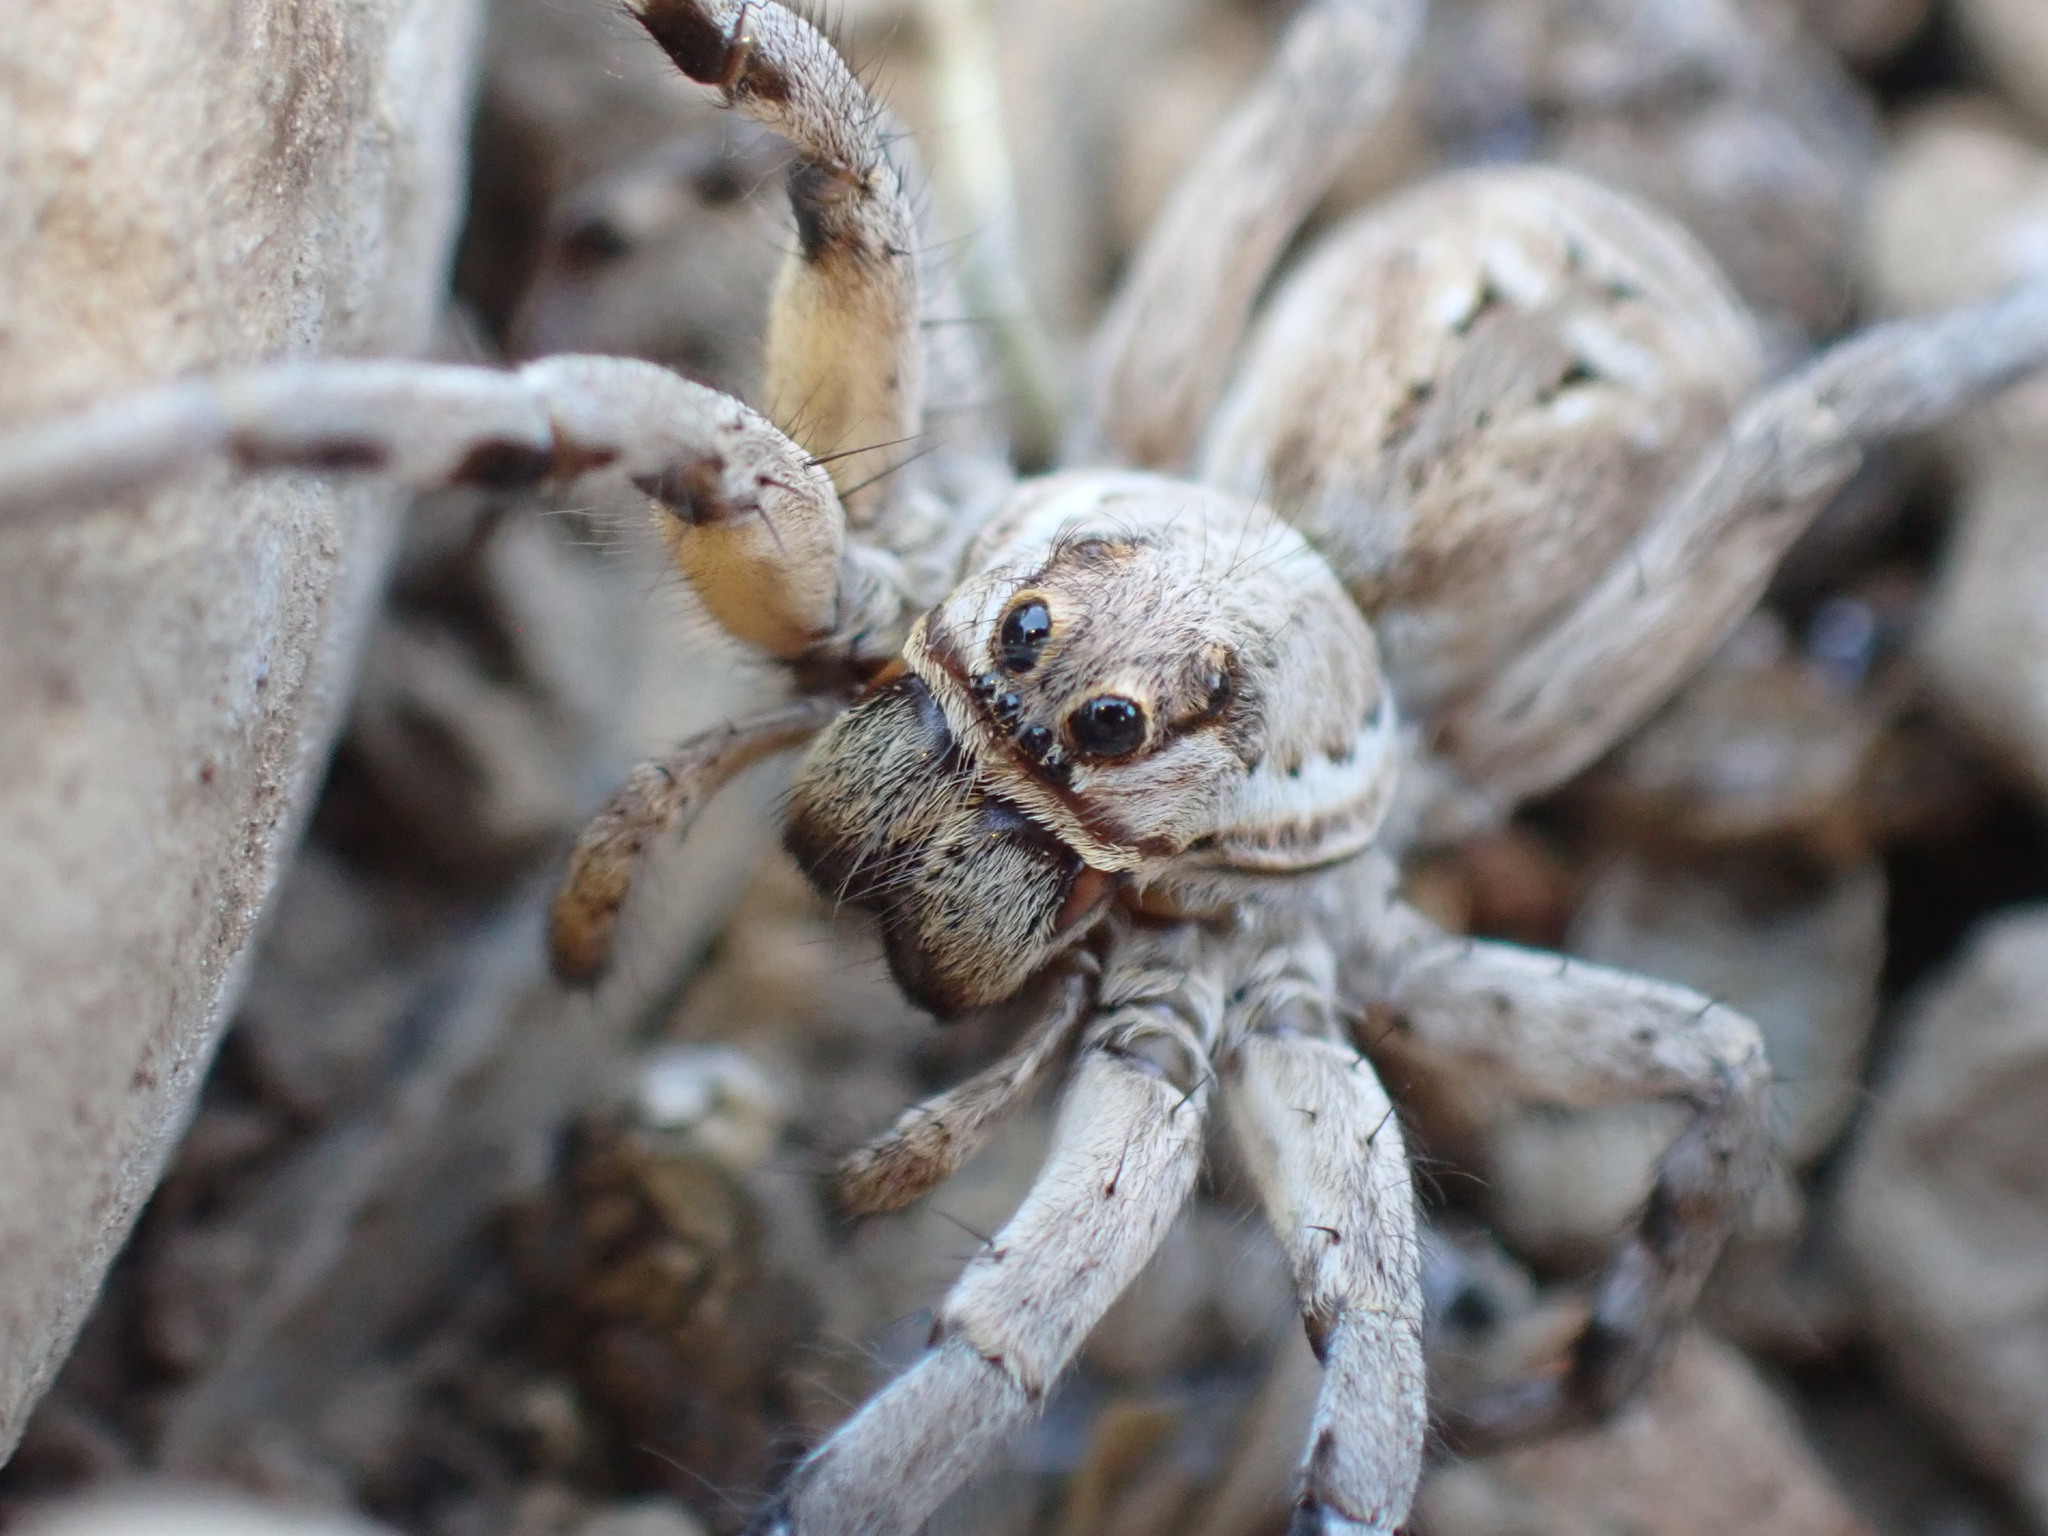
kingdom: Animalia
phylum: Arthropoda
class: Arachnida
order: Araneae
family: Lycosidae
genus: Lycosa
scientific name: Lycosa tarantula
